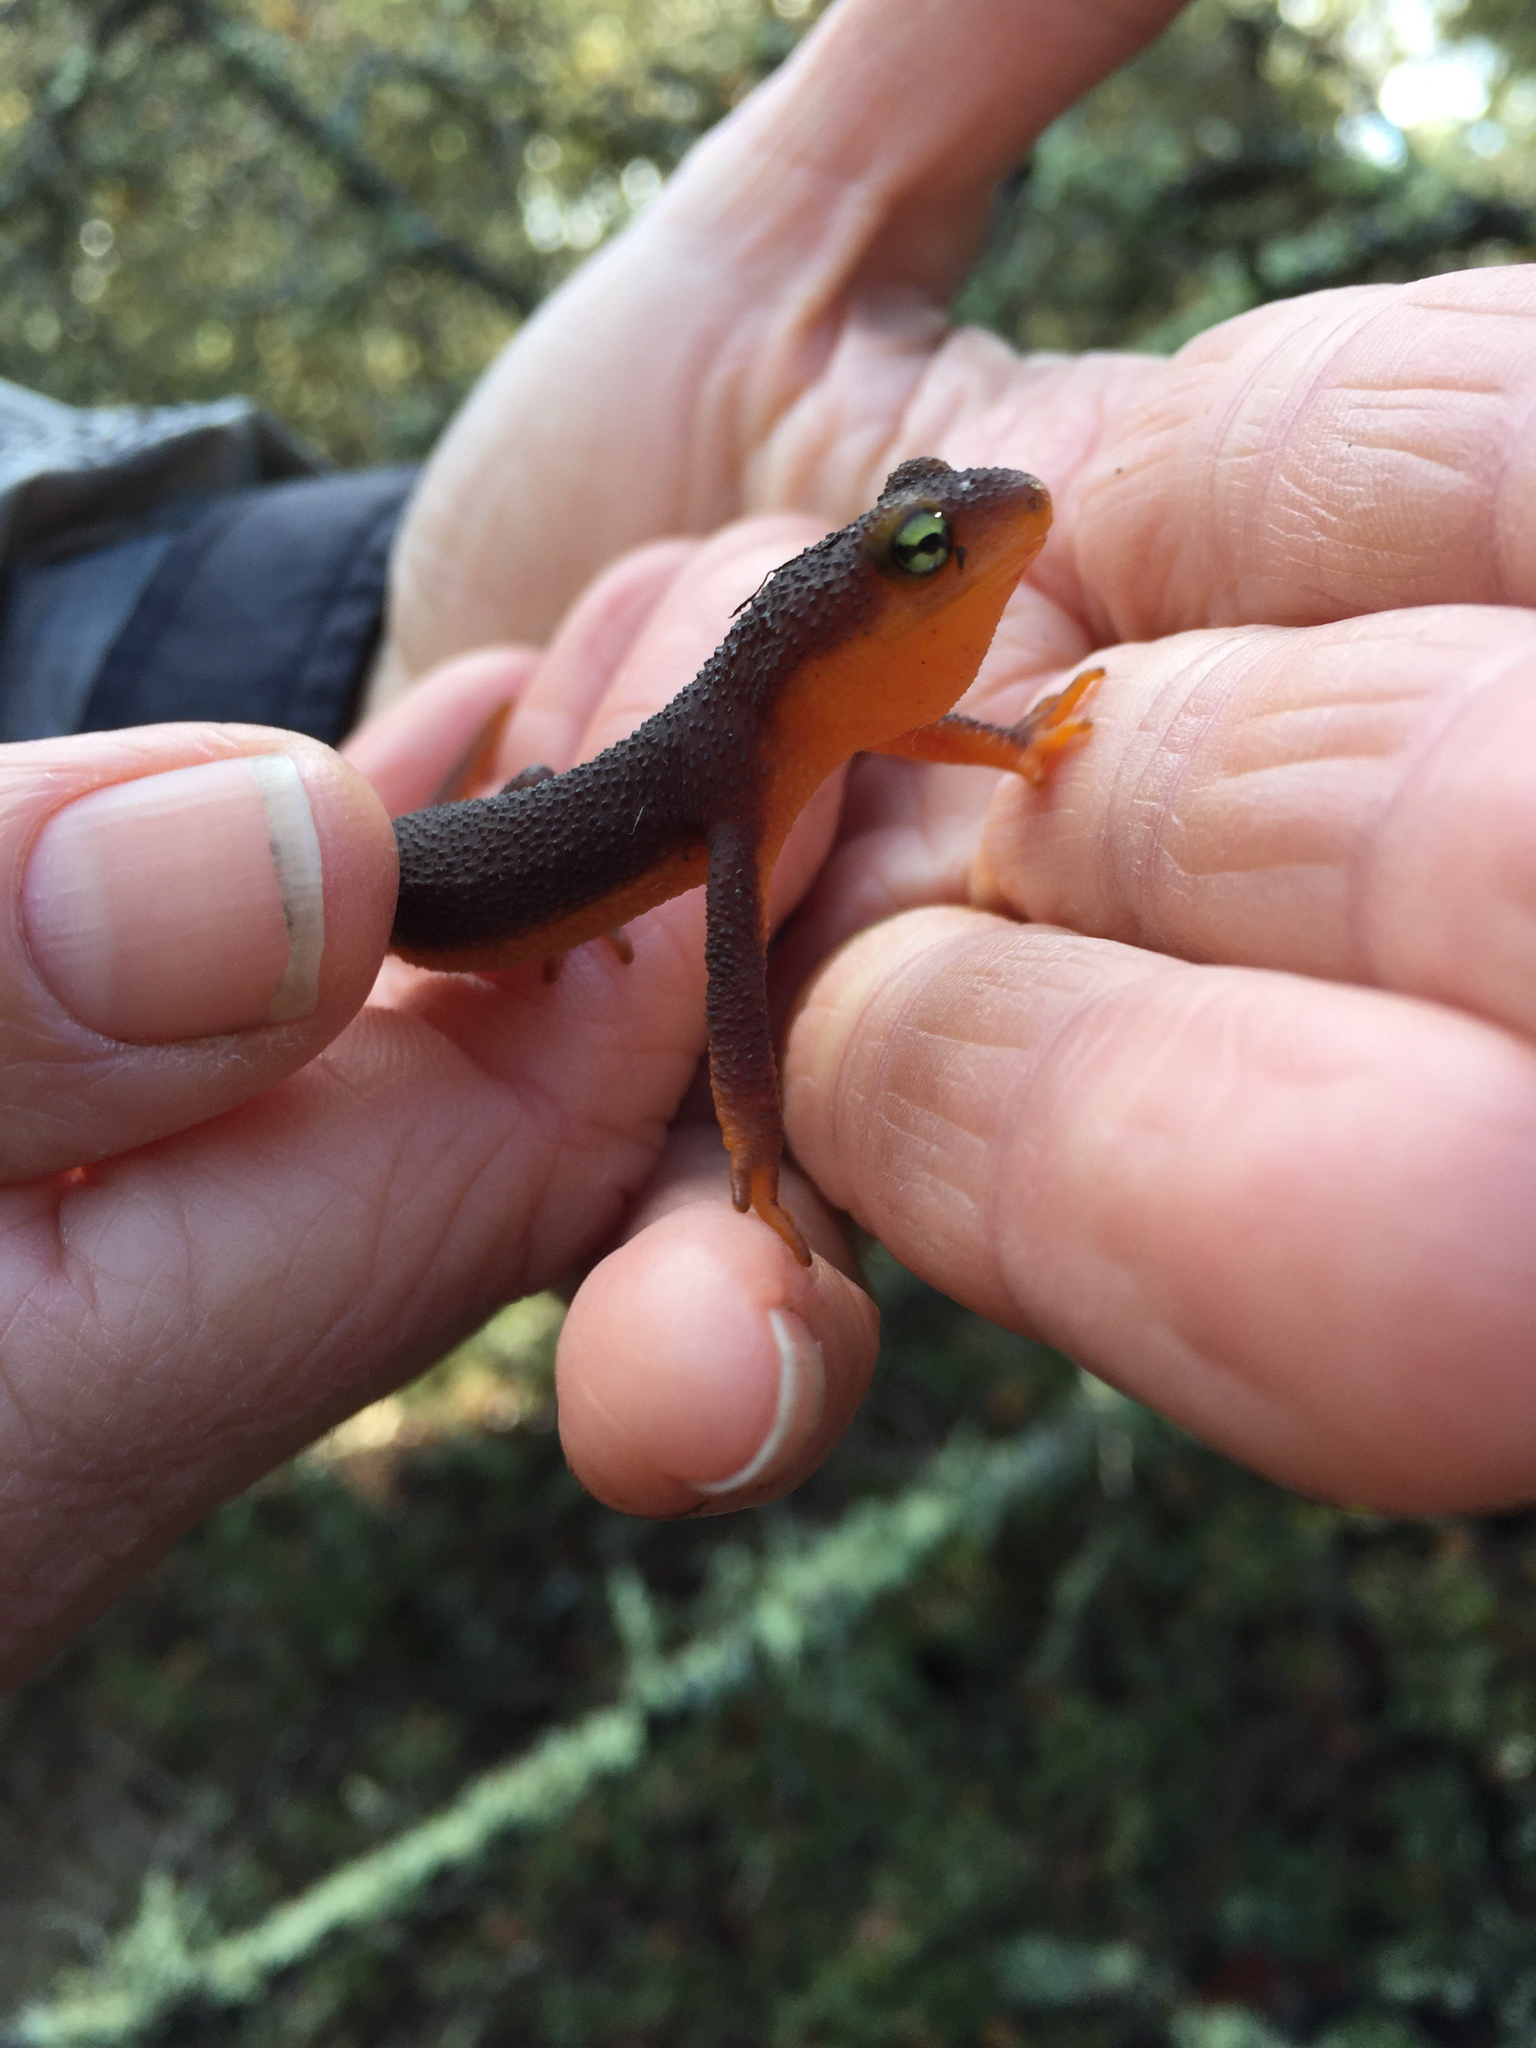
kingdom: Animalia
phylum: Chordata
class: Amphibia
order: Caudata
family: Salamandridae
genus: Taricha
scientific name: Taricha torosa
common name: California newt
